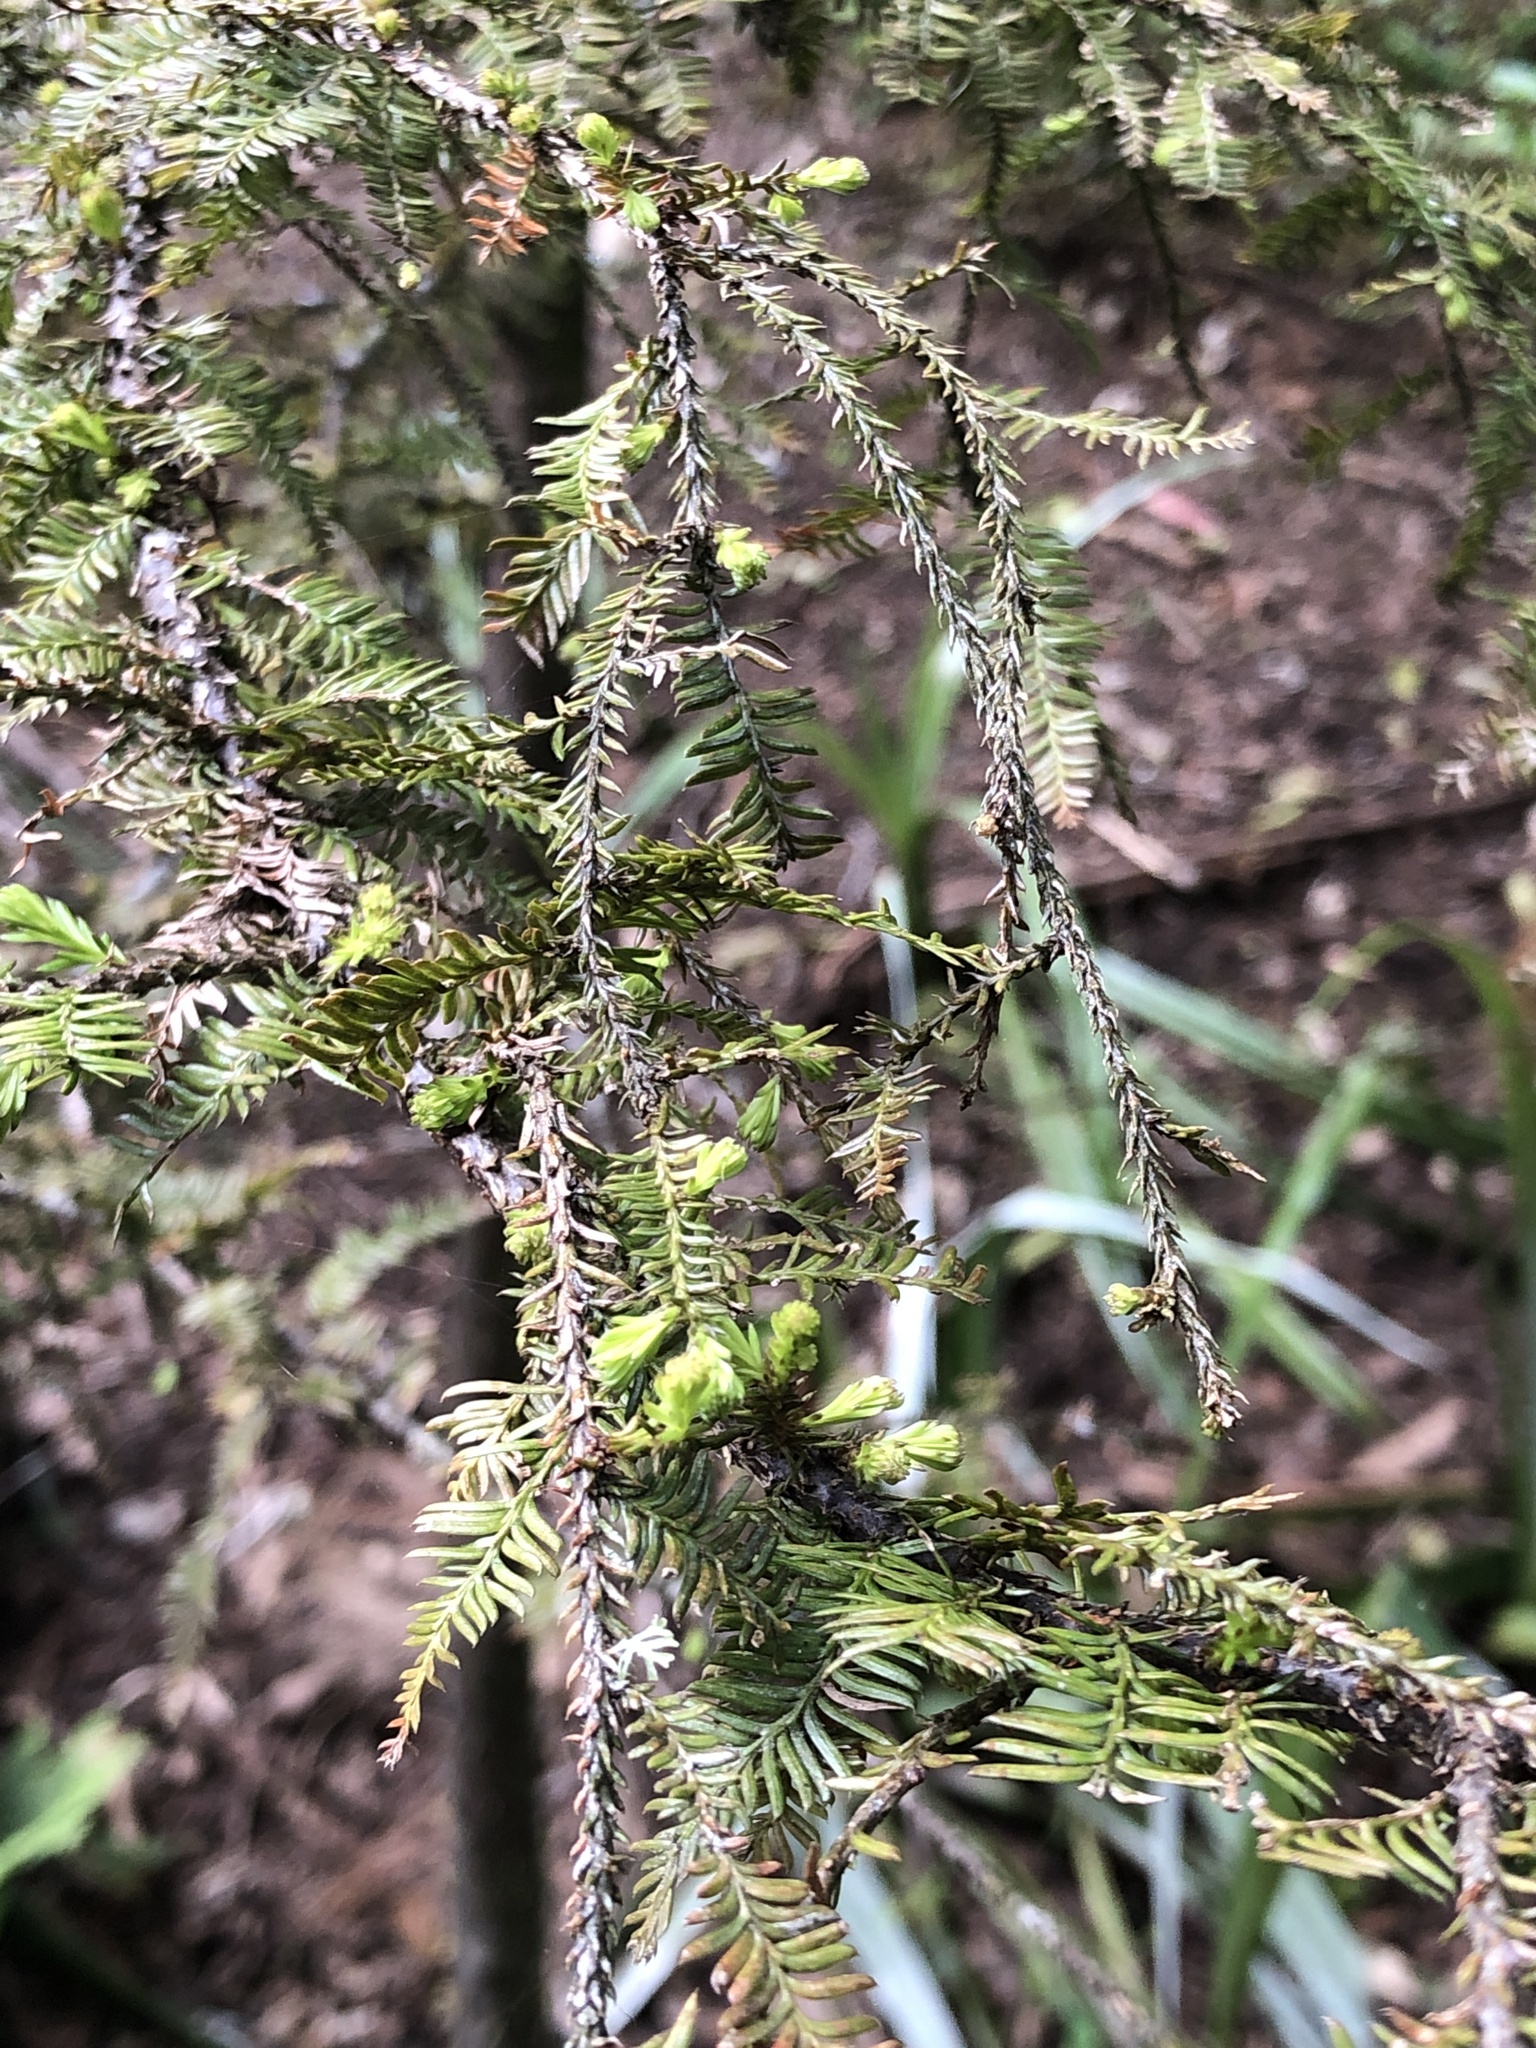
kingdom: Plantae
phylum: Tracheophyta
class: Pinopsida
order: Pinales
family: Podocarpaceae
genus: Dacrycarpus
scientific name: Dacrycarpus dacrydioides
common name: White pine
